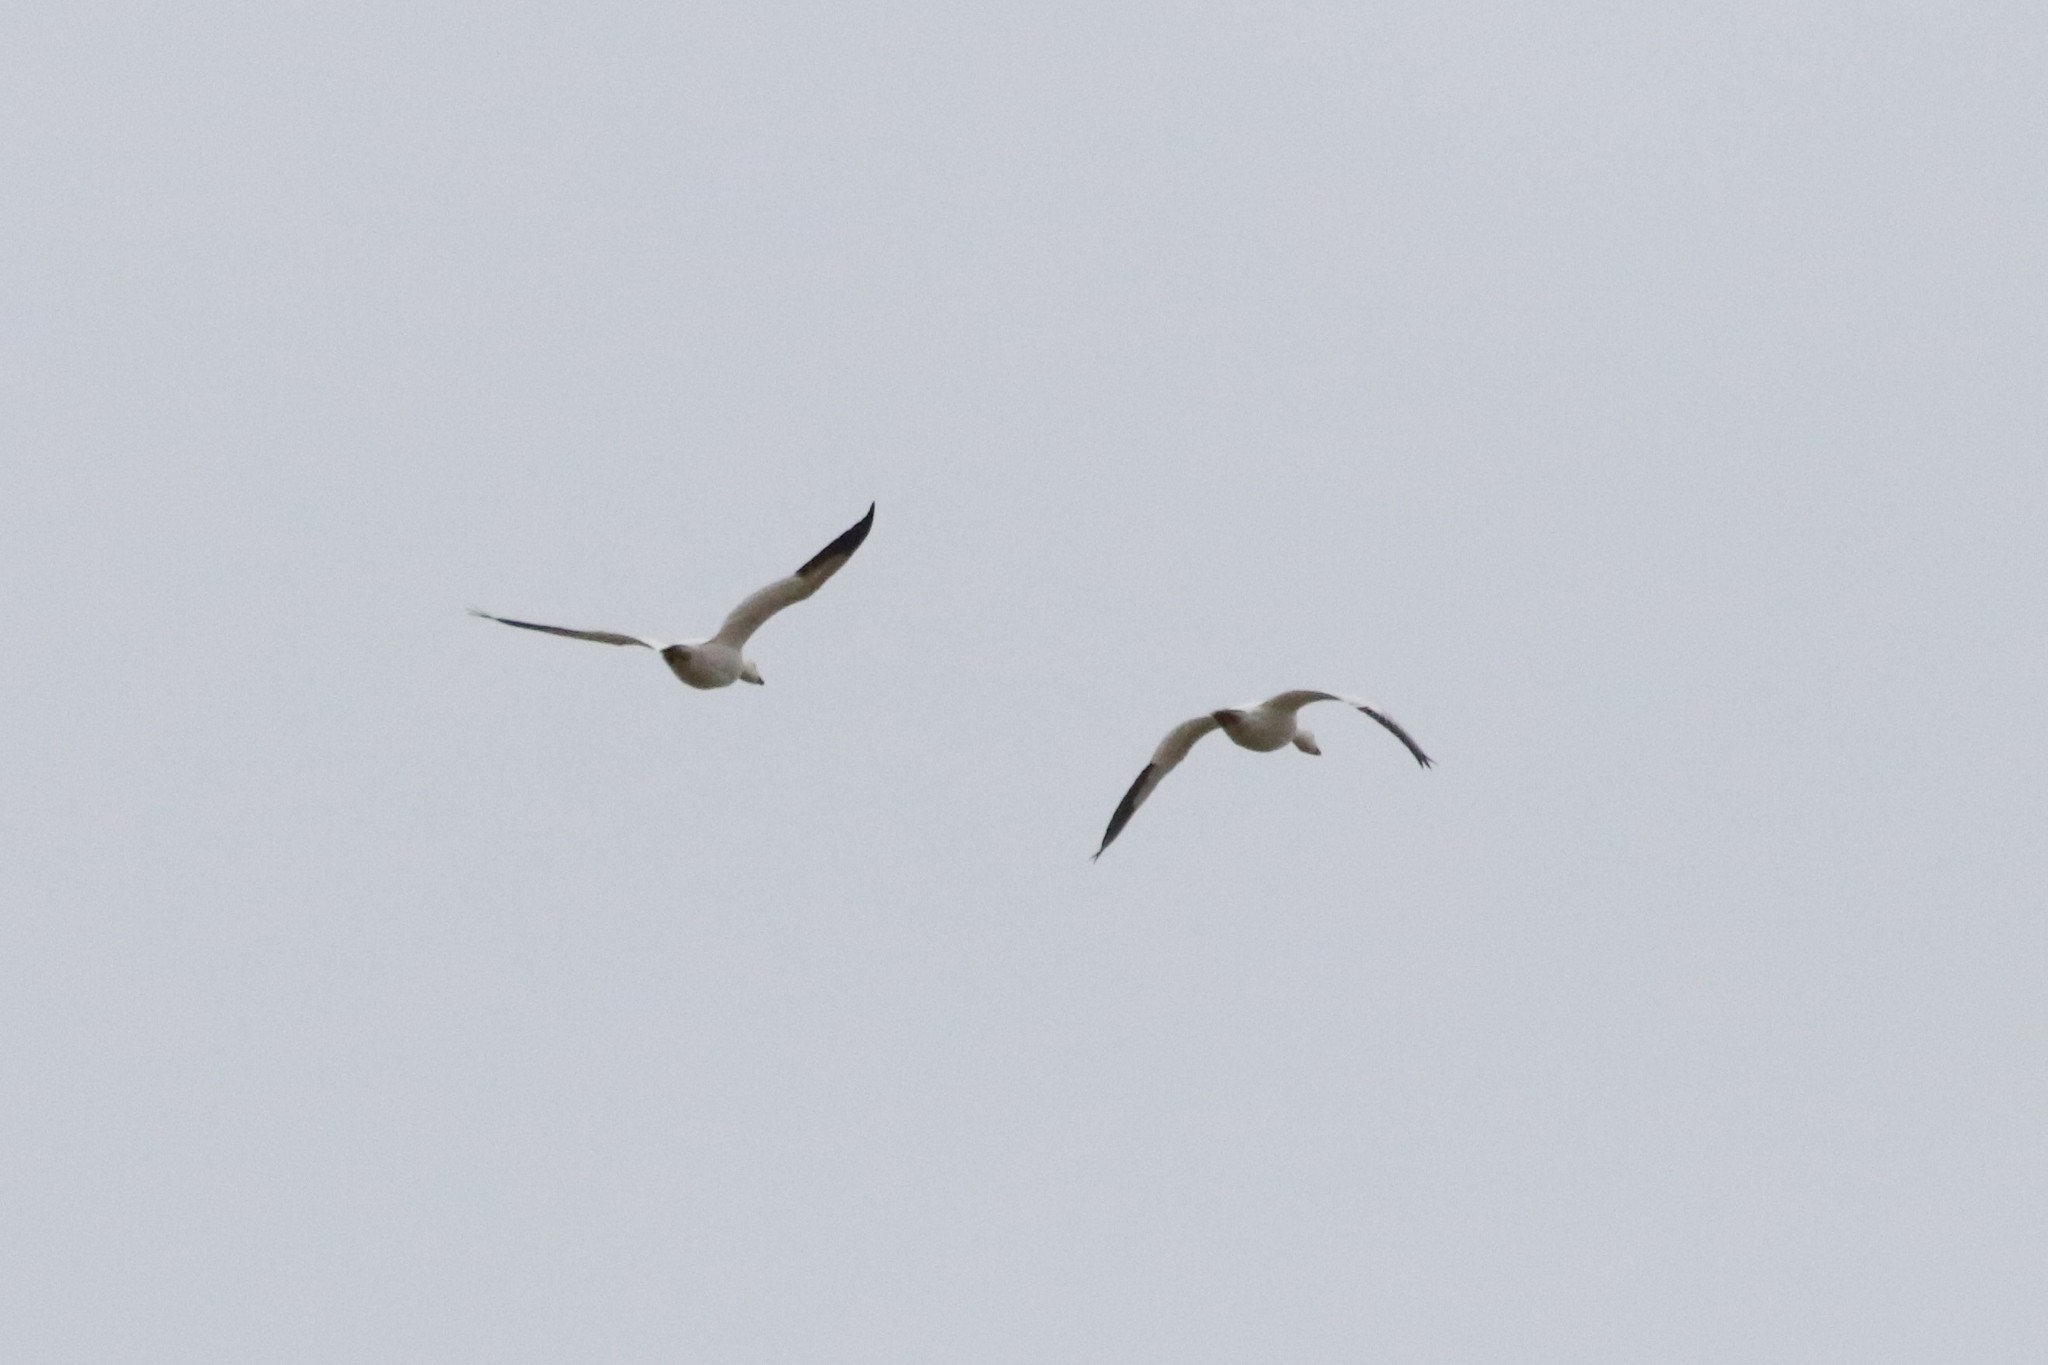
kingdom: Animalia
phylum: Chordata
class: Aves
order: Anseriformes
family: Anatidae
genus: Anser
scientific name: Anser caerulescens
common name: Snow goose
